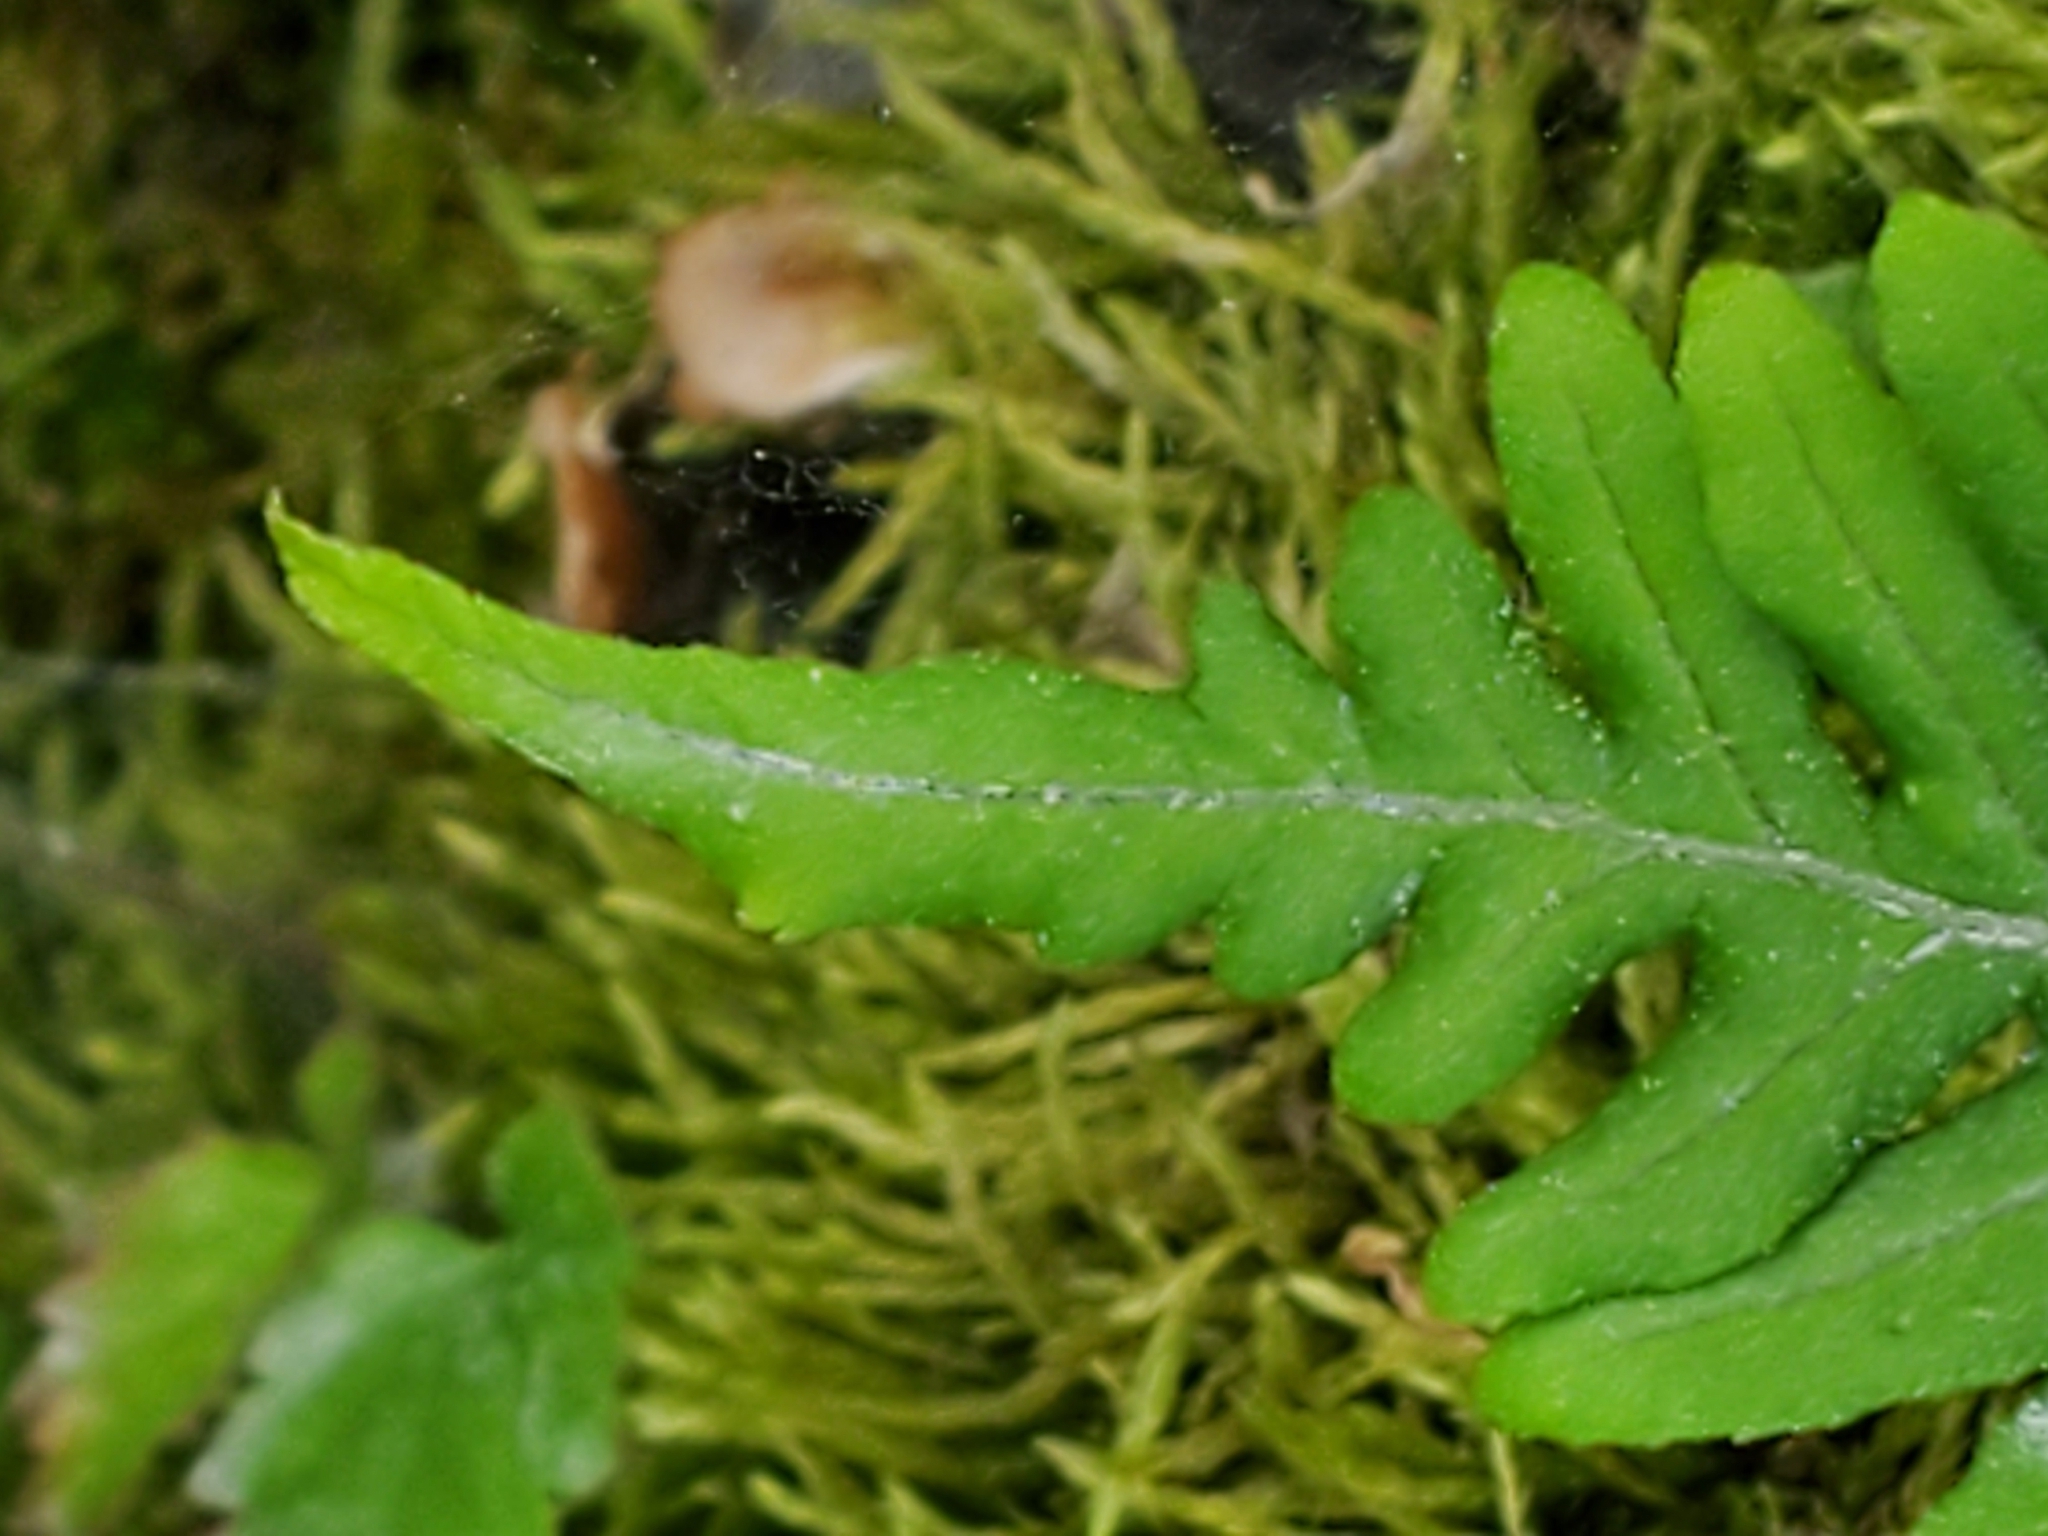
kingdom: Plantae
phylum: Tracheophyta
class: Polypodiopsida
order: Polypodiales
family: Polypodiaceae
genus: Polypodium
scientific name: Polypodium glycyrrhiza
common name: Licorice fern
